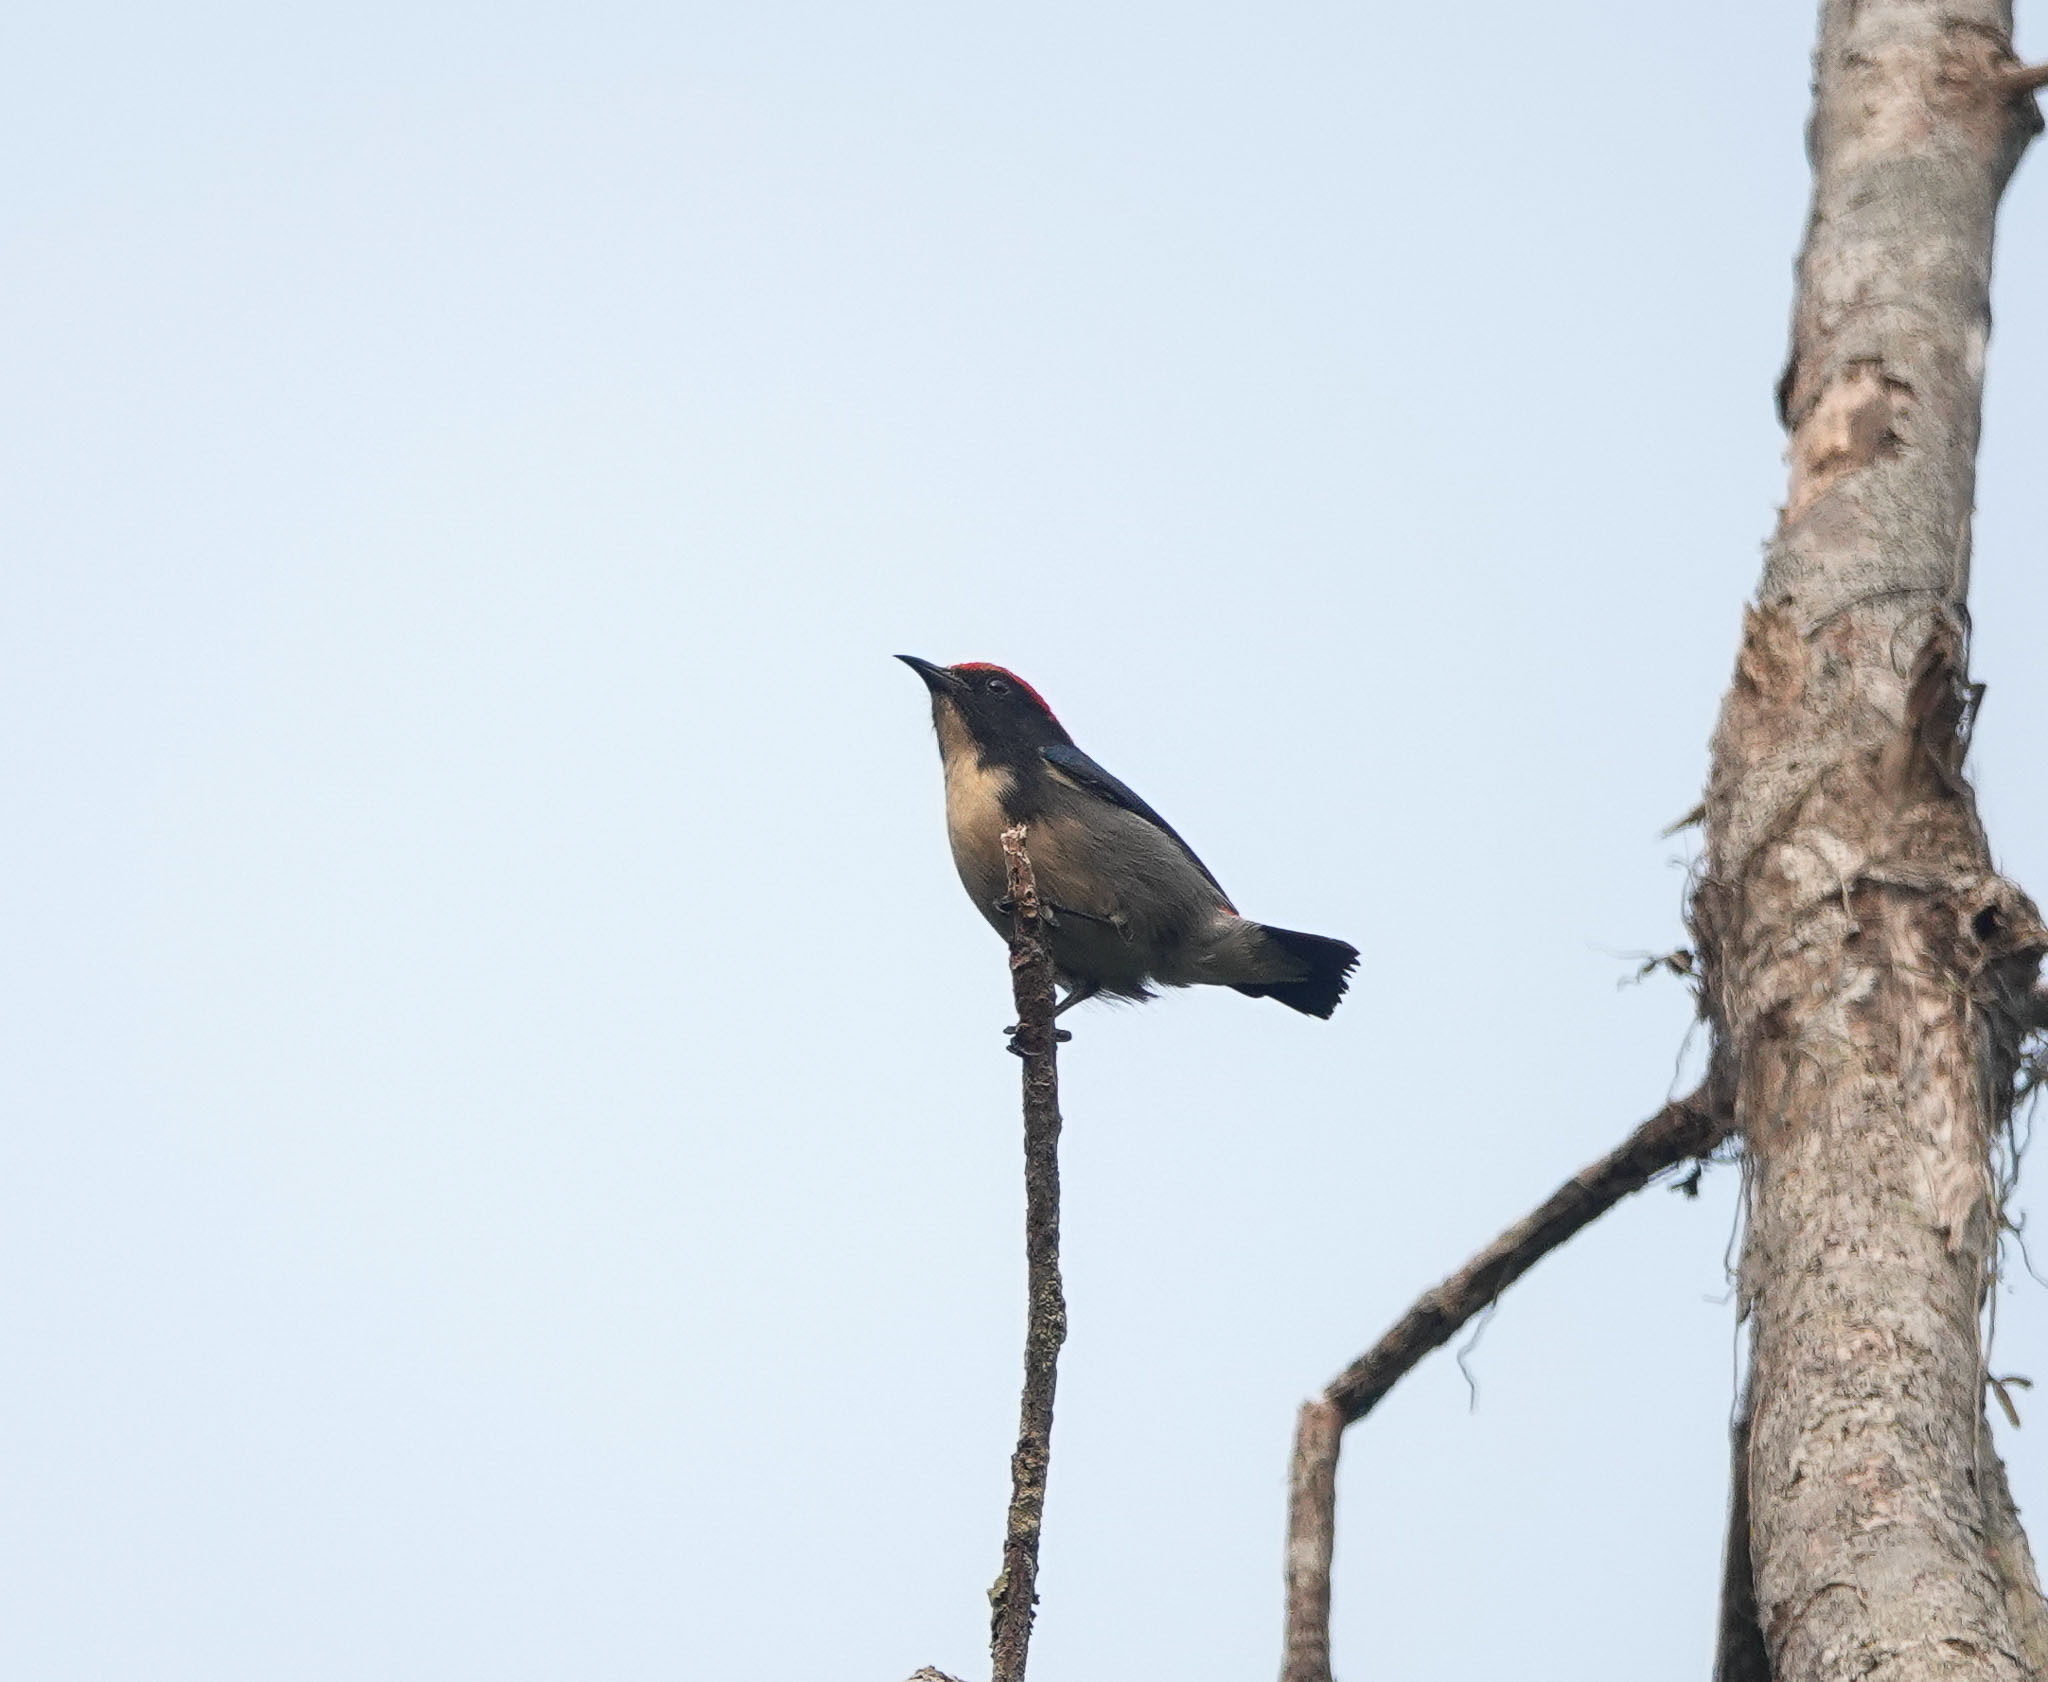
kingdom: Animalia
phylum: Chordata
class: Aves
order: Passeriformes
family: Dicaeidae
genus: Dicaeum
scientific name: Dicaeum cruentatum
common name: Scarlet-backed flowerpecker
